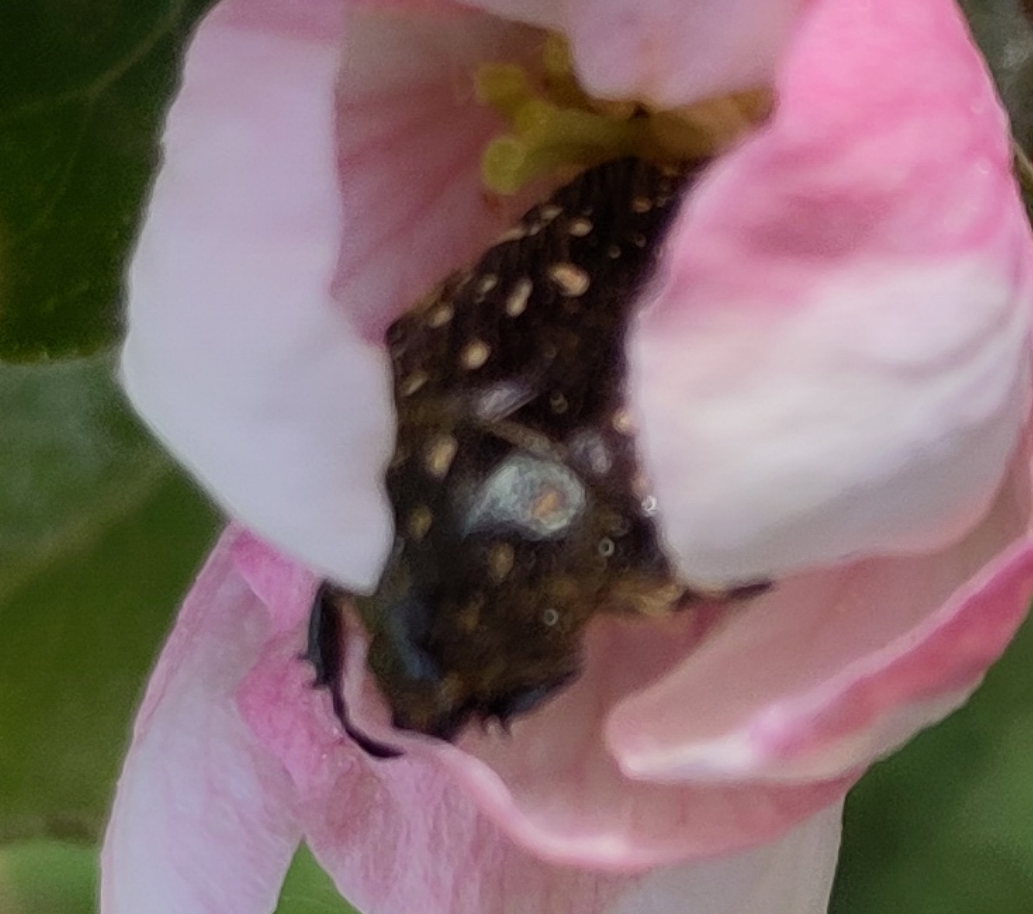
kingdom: Animalia
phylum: Arthropoda
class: Insecta
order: Coleoptera
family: Scarabaeidae
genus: Oxythyrea
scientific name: Oxythyrea funesta
